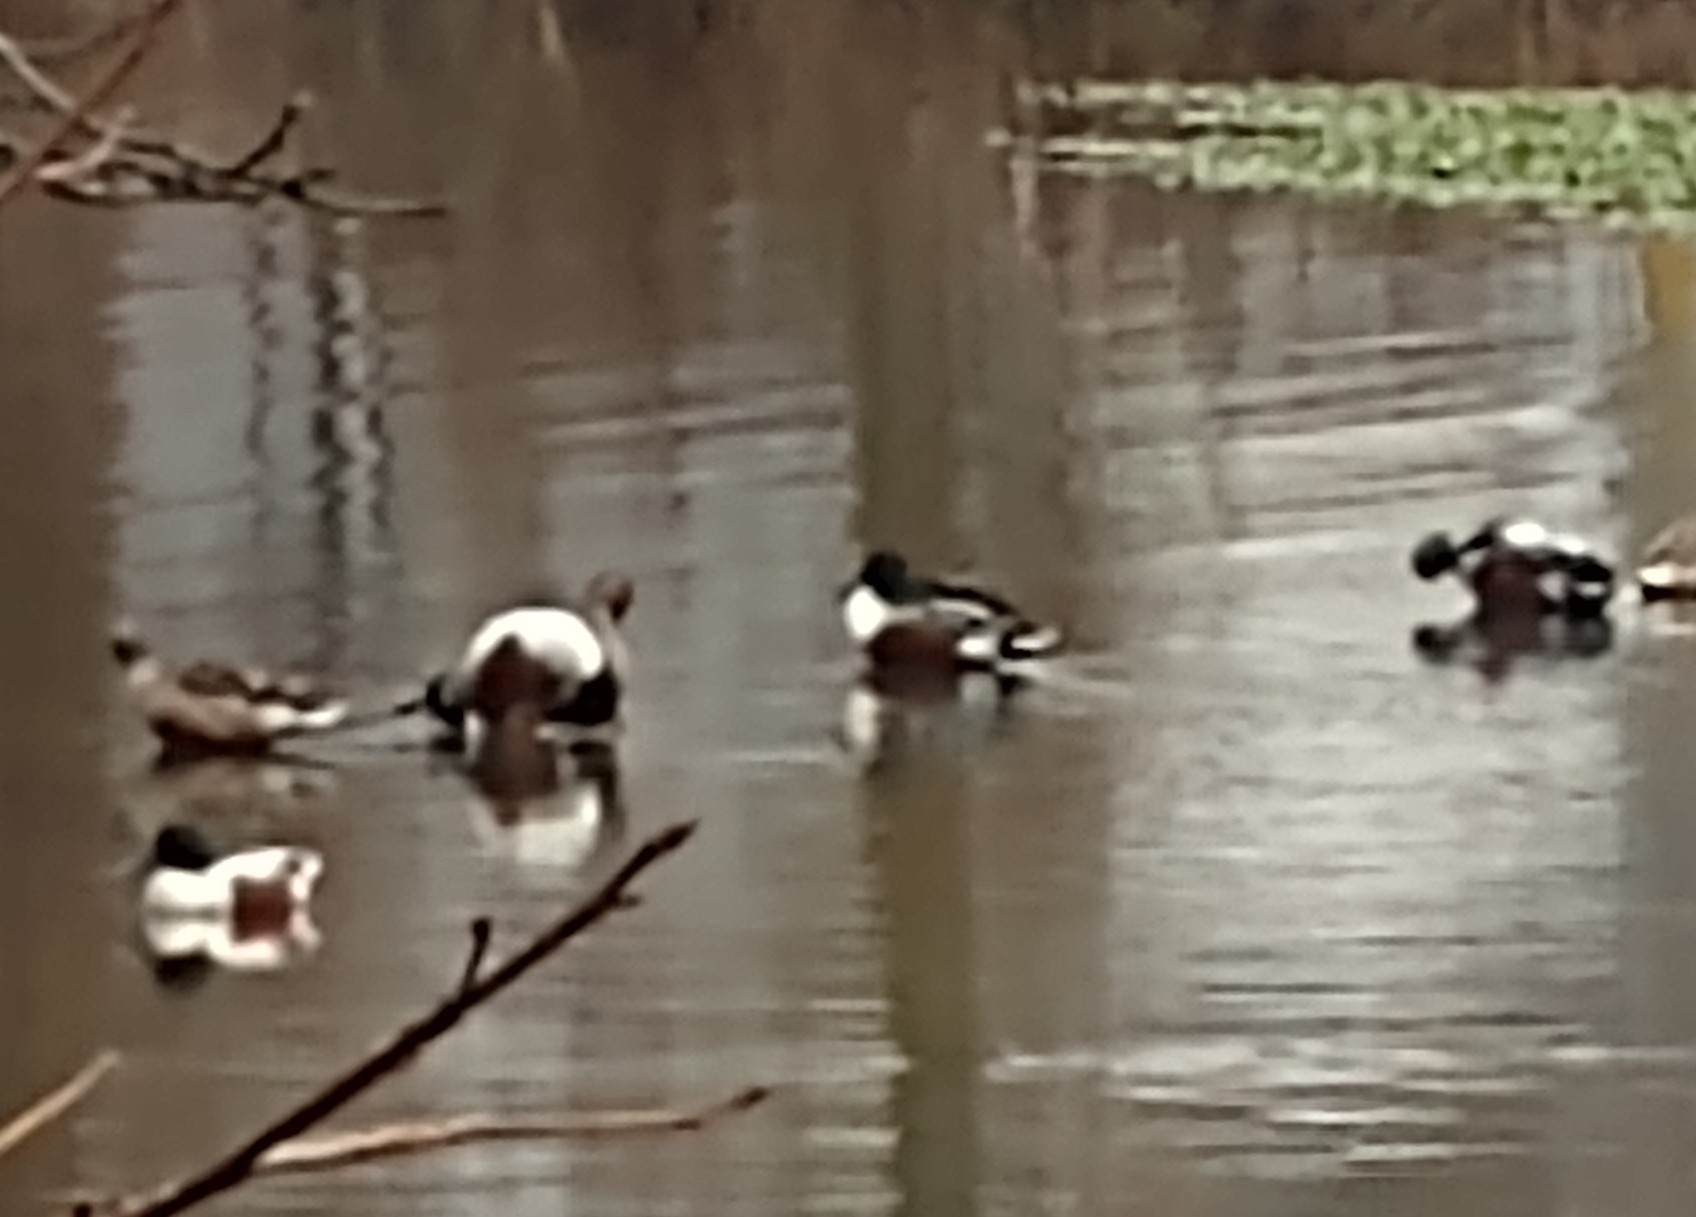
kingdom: Animalia
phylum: Chordata
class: Aves
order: Anseriformes
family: Anatidae
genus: Spatula
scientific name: Spatula clypeata
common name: Northern shoveler
